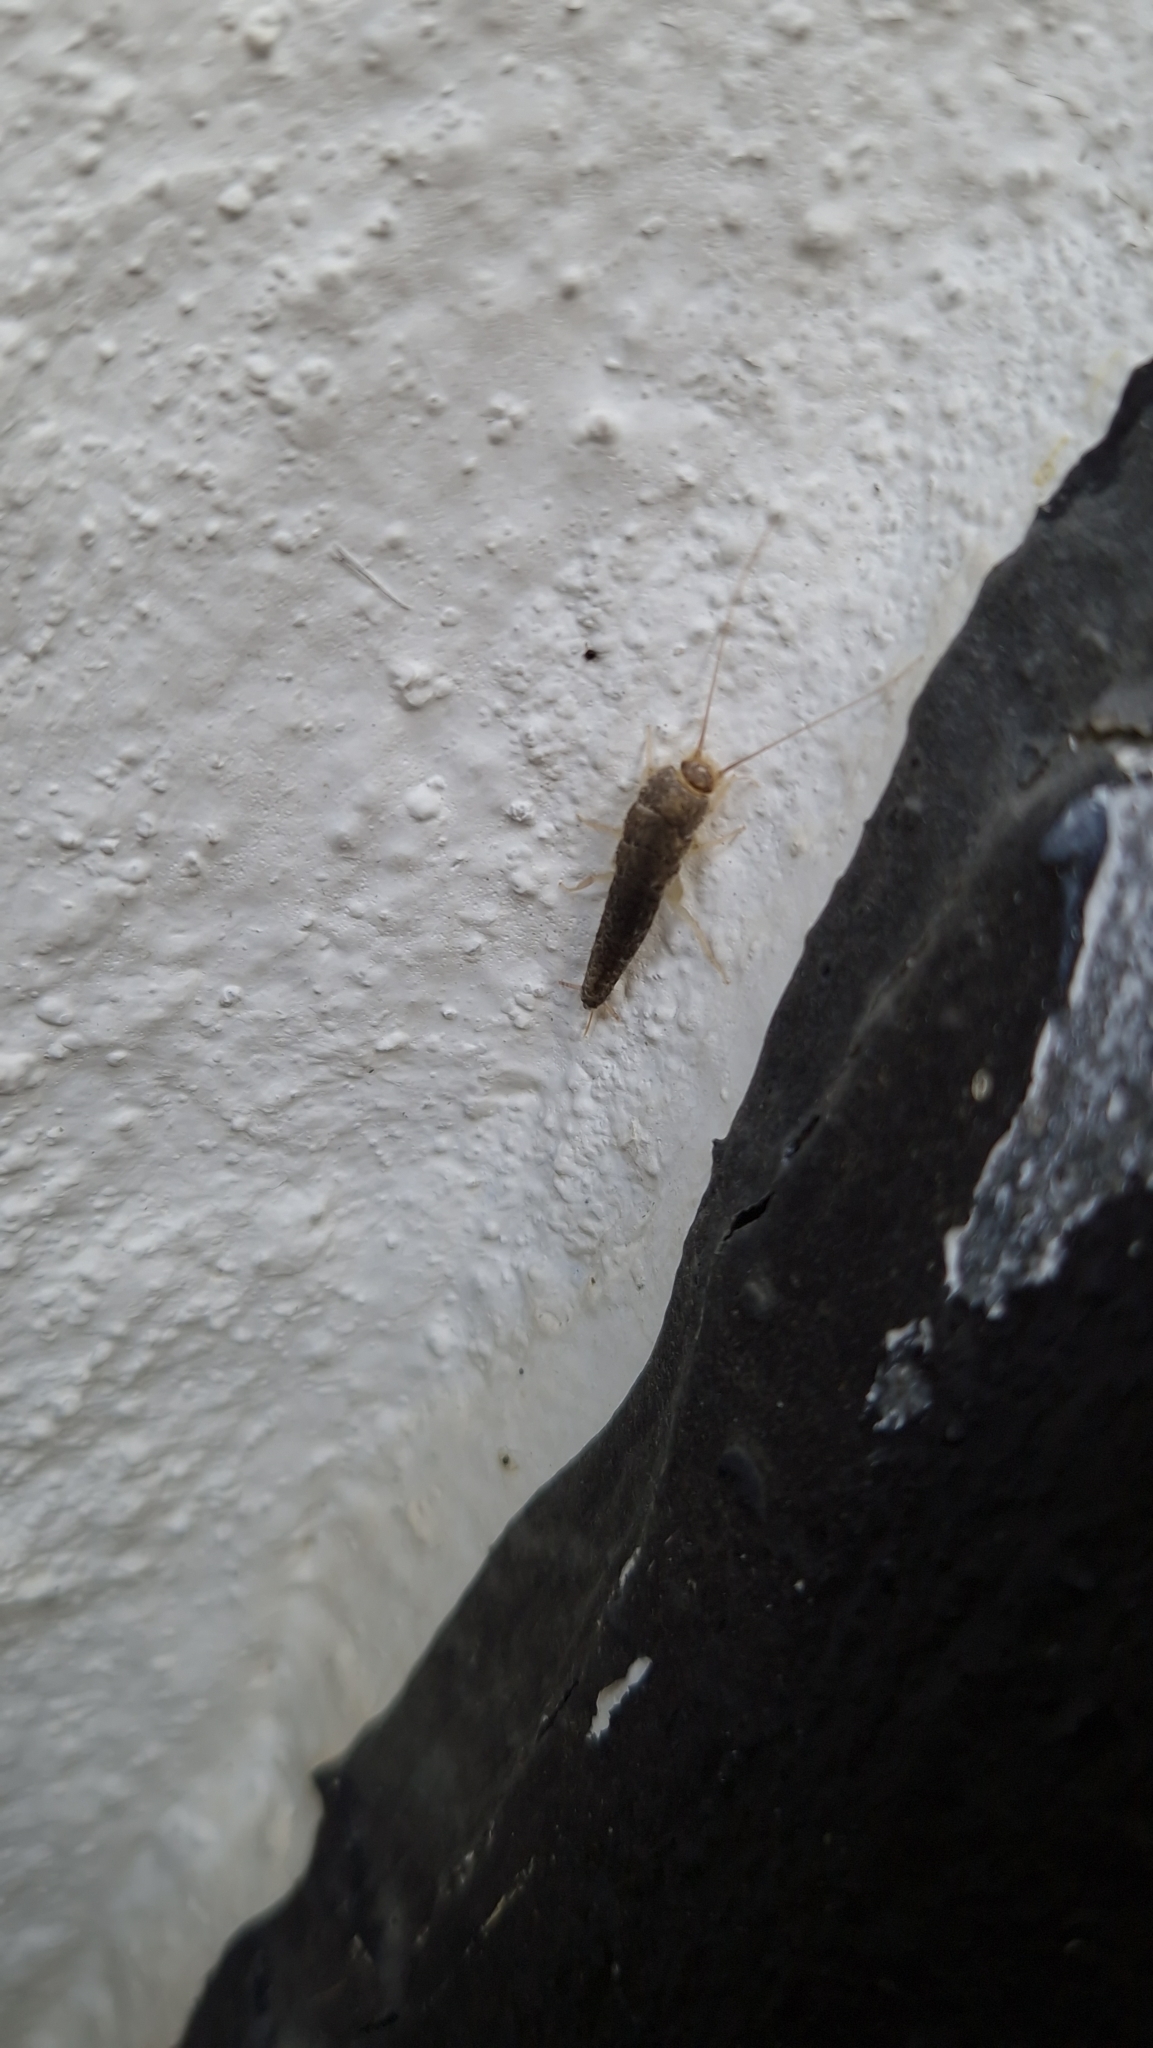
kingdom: Animalia
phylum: Arthropoda
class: Insecta
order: Zygentoma
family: Lepismatidae
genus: Ctenolepisma
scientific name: Ctenolepisma longicaudatum
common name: Silverfish
